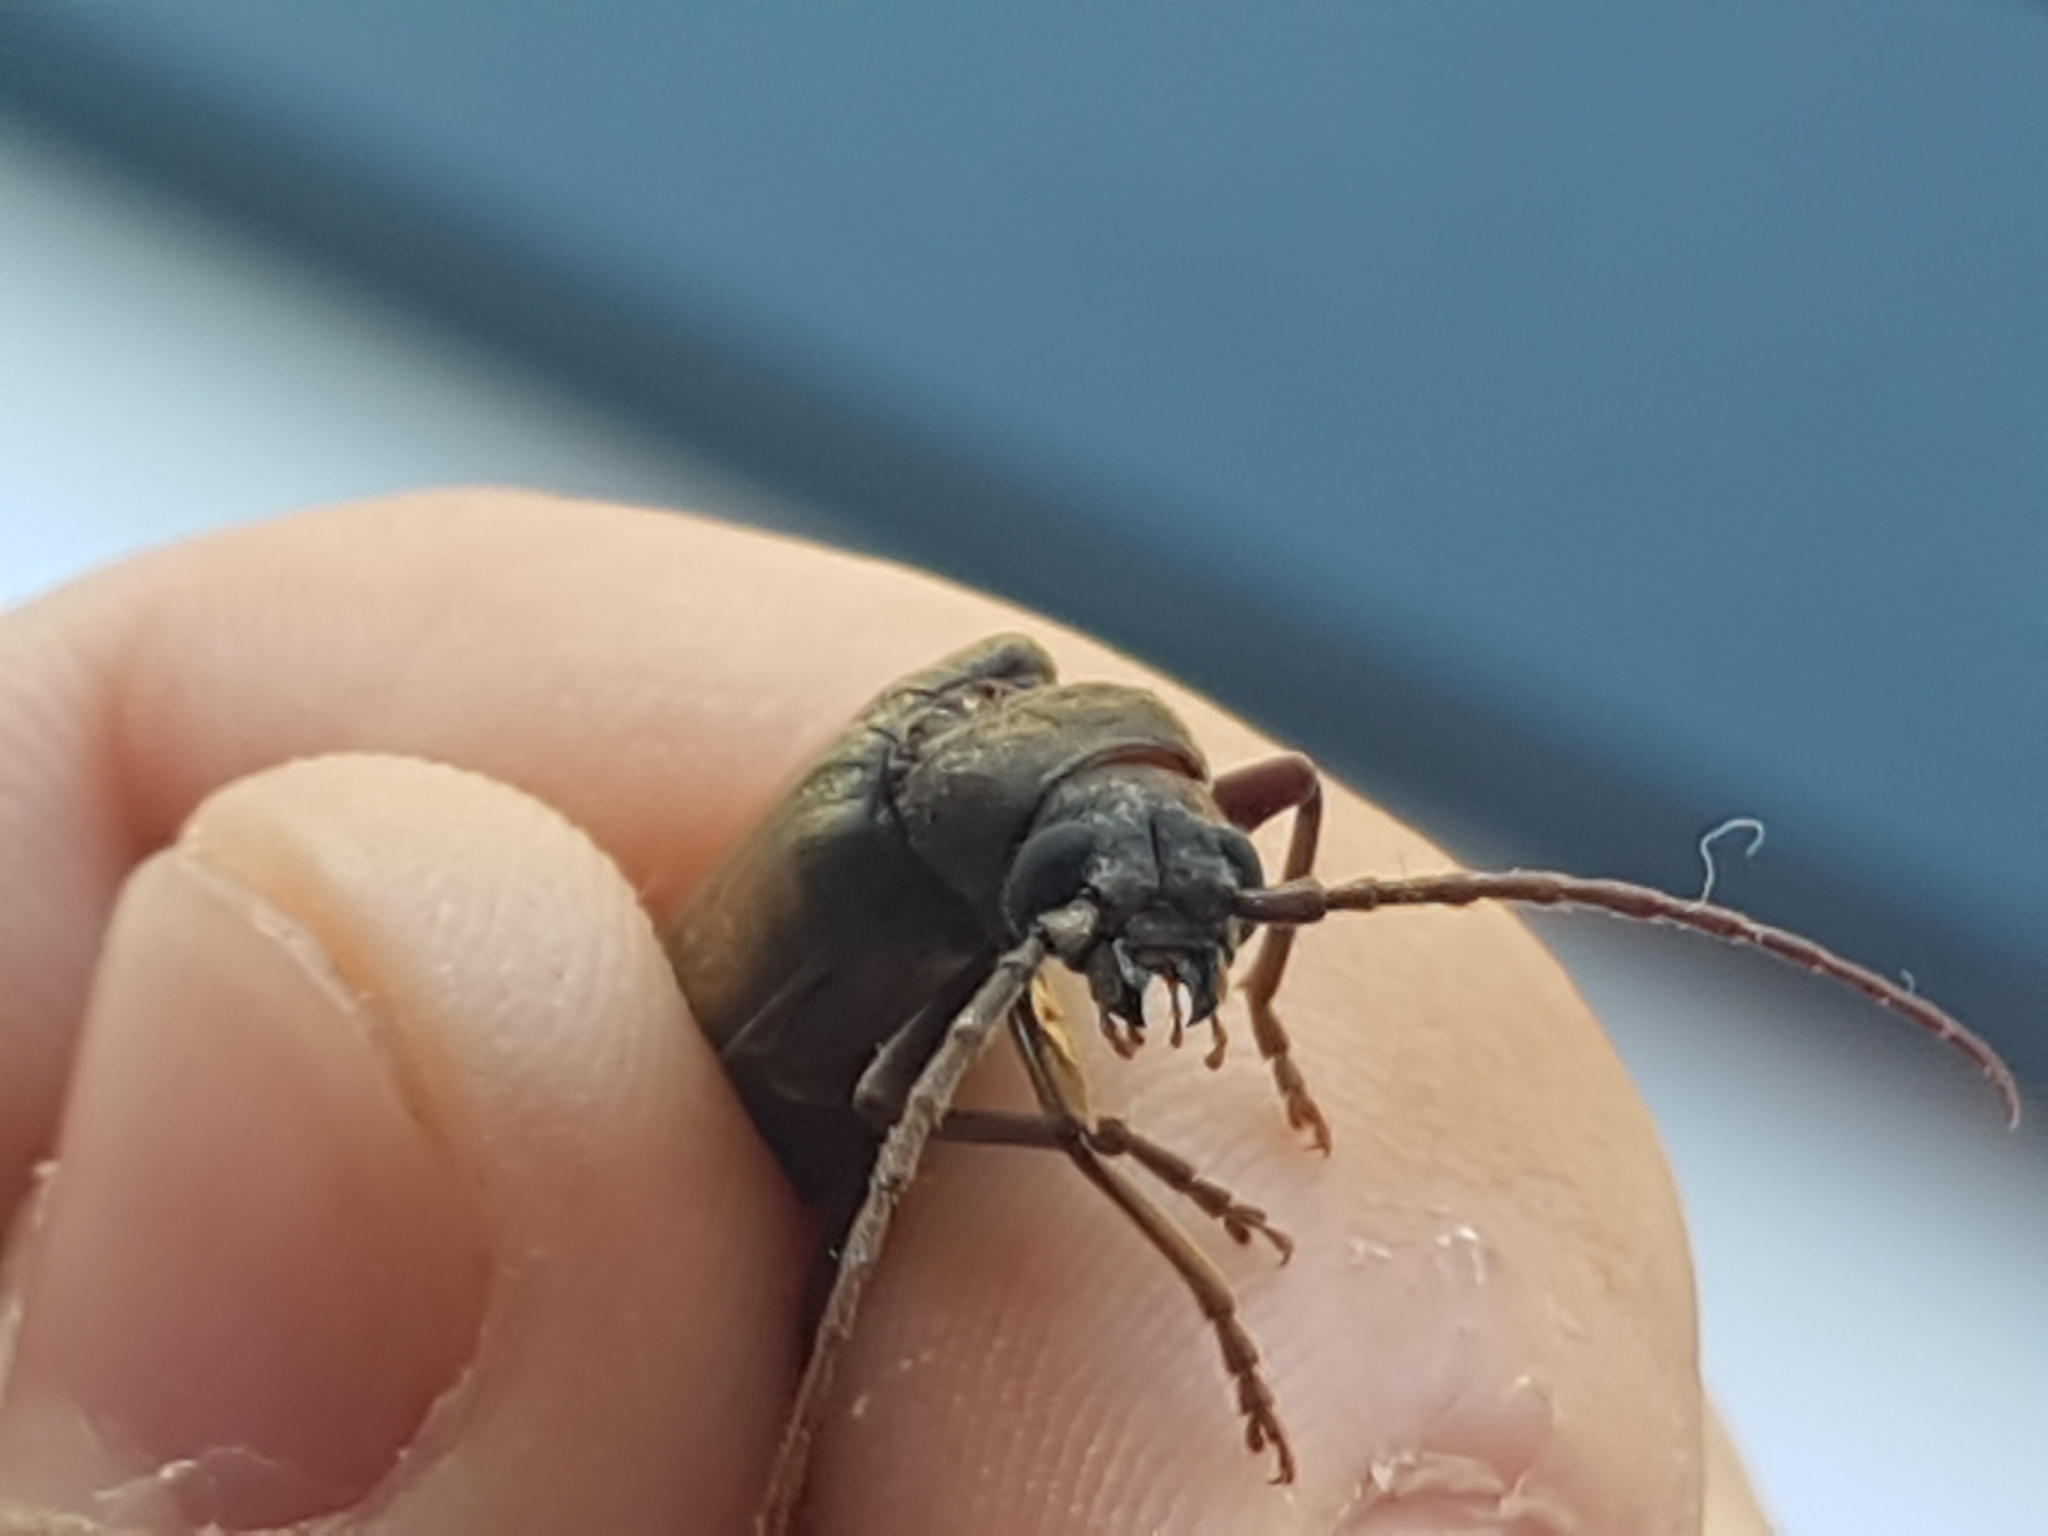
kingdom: Animalia
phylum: Arthropoda
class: Insecta
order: Coleoptera
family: Cerambycidae
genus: Arhopalus
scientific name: Arhopalus rusticus
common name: Rust pine borer
